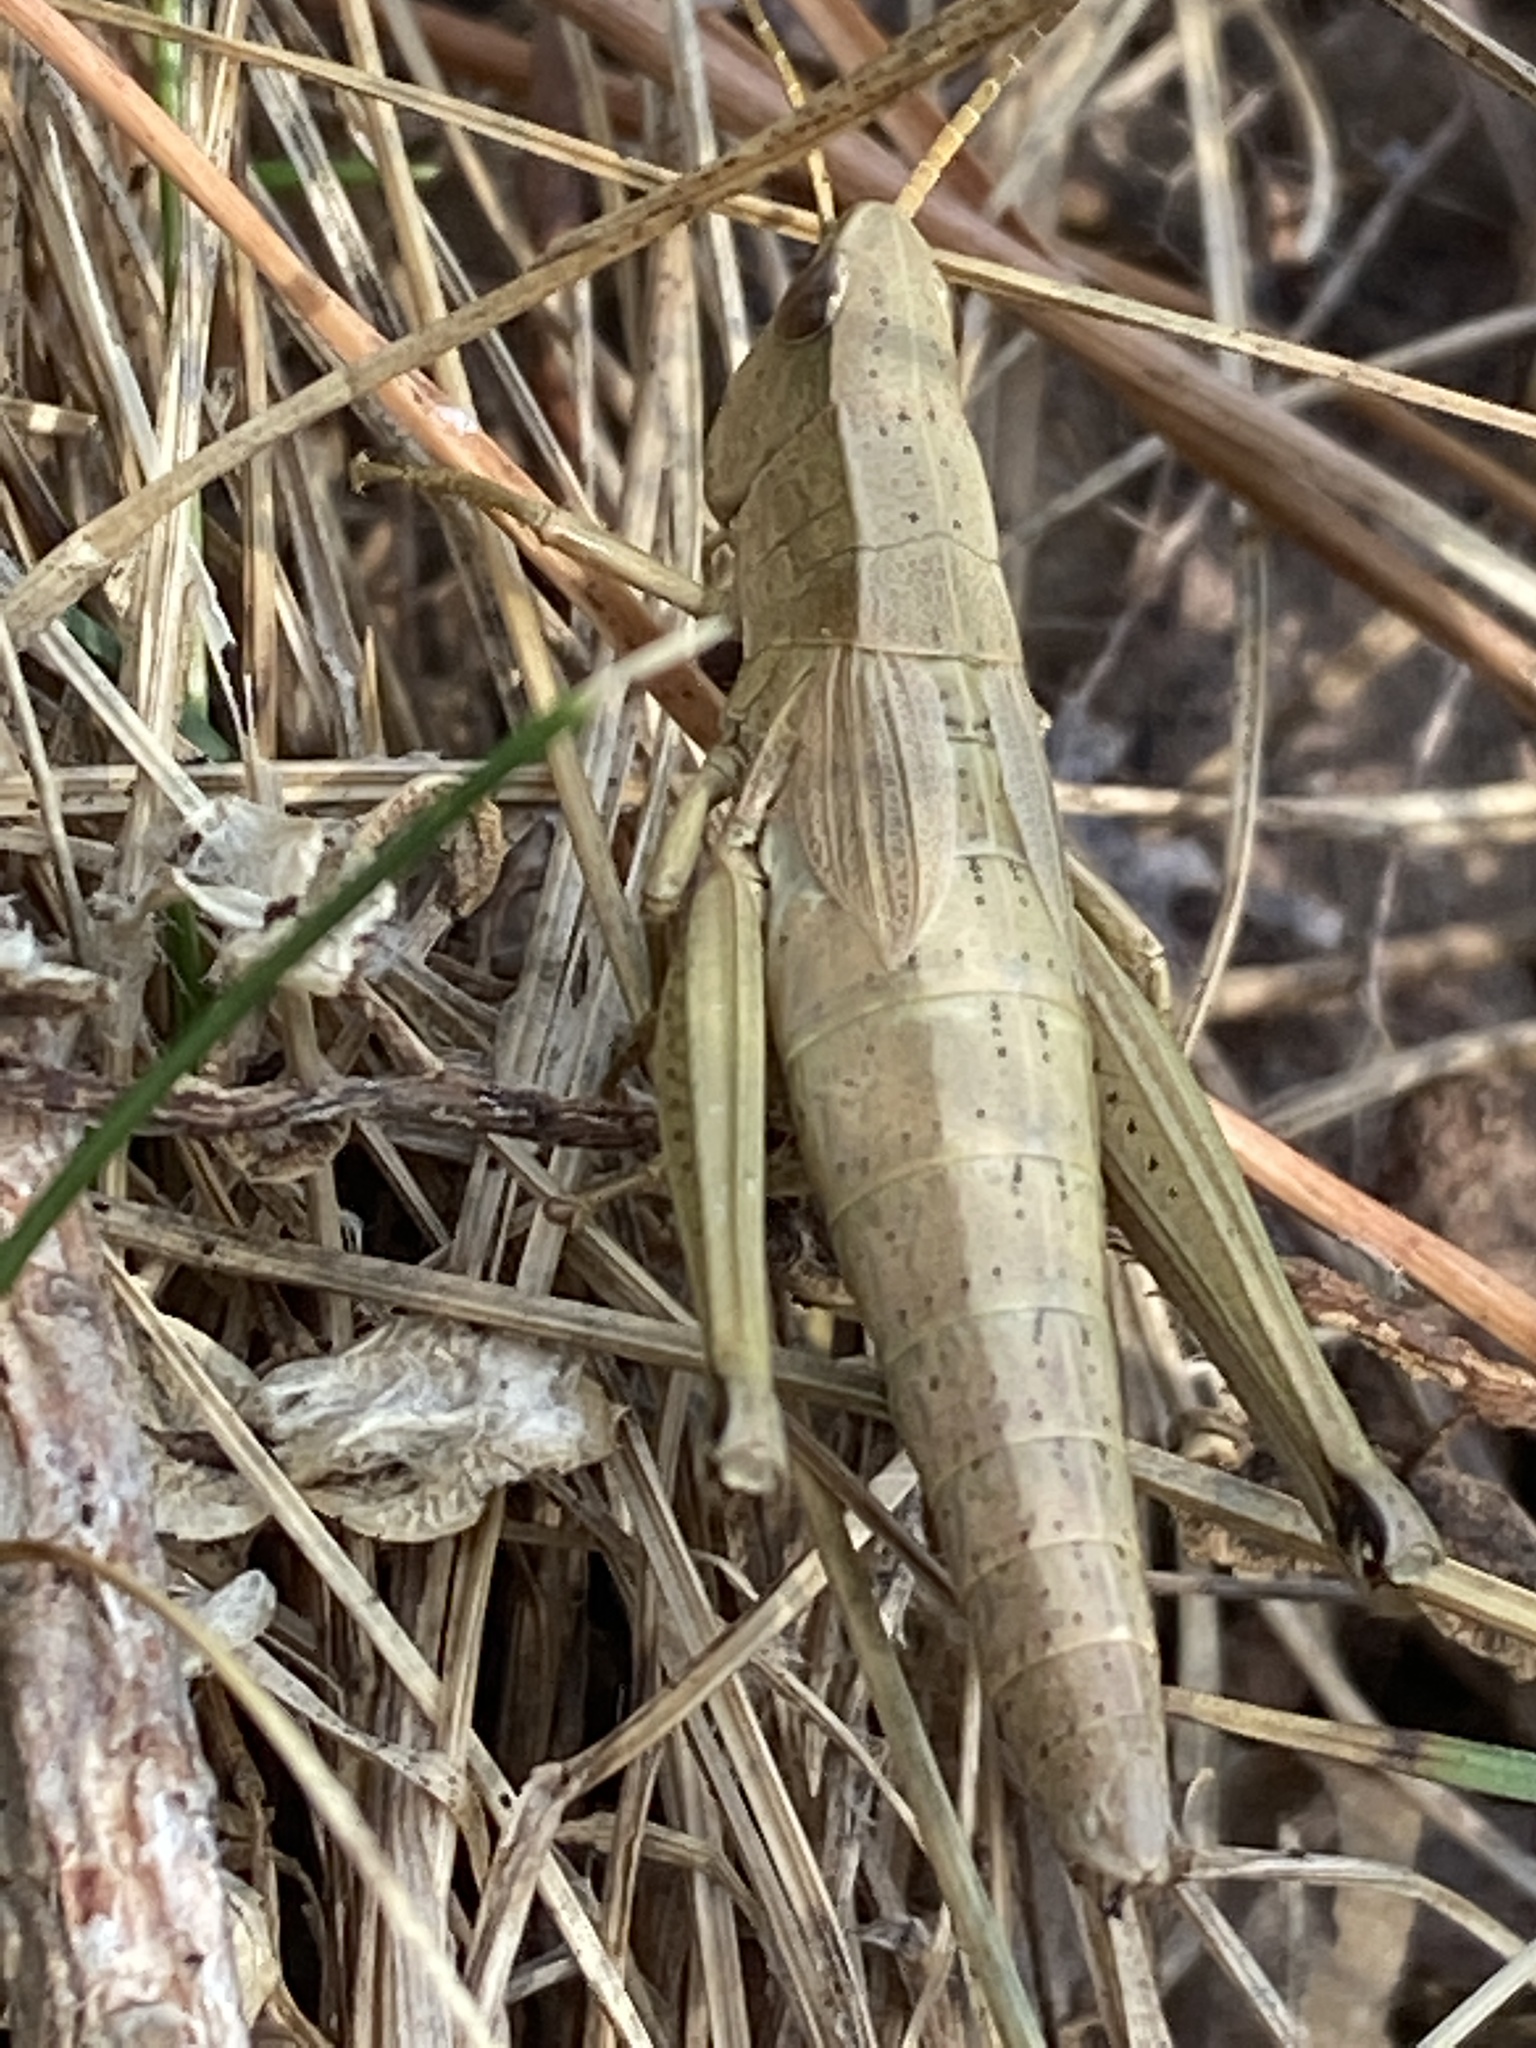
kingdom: Animalia
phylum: Arthropoda
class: Insecta
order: Orthoptera
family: Acrididae
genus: Chrysochraon
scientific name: Chrysochraon dispar
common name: Large gold grasshopper
